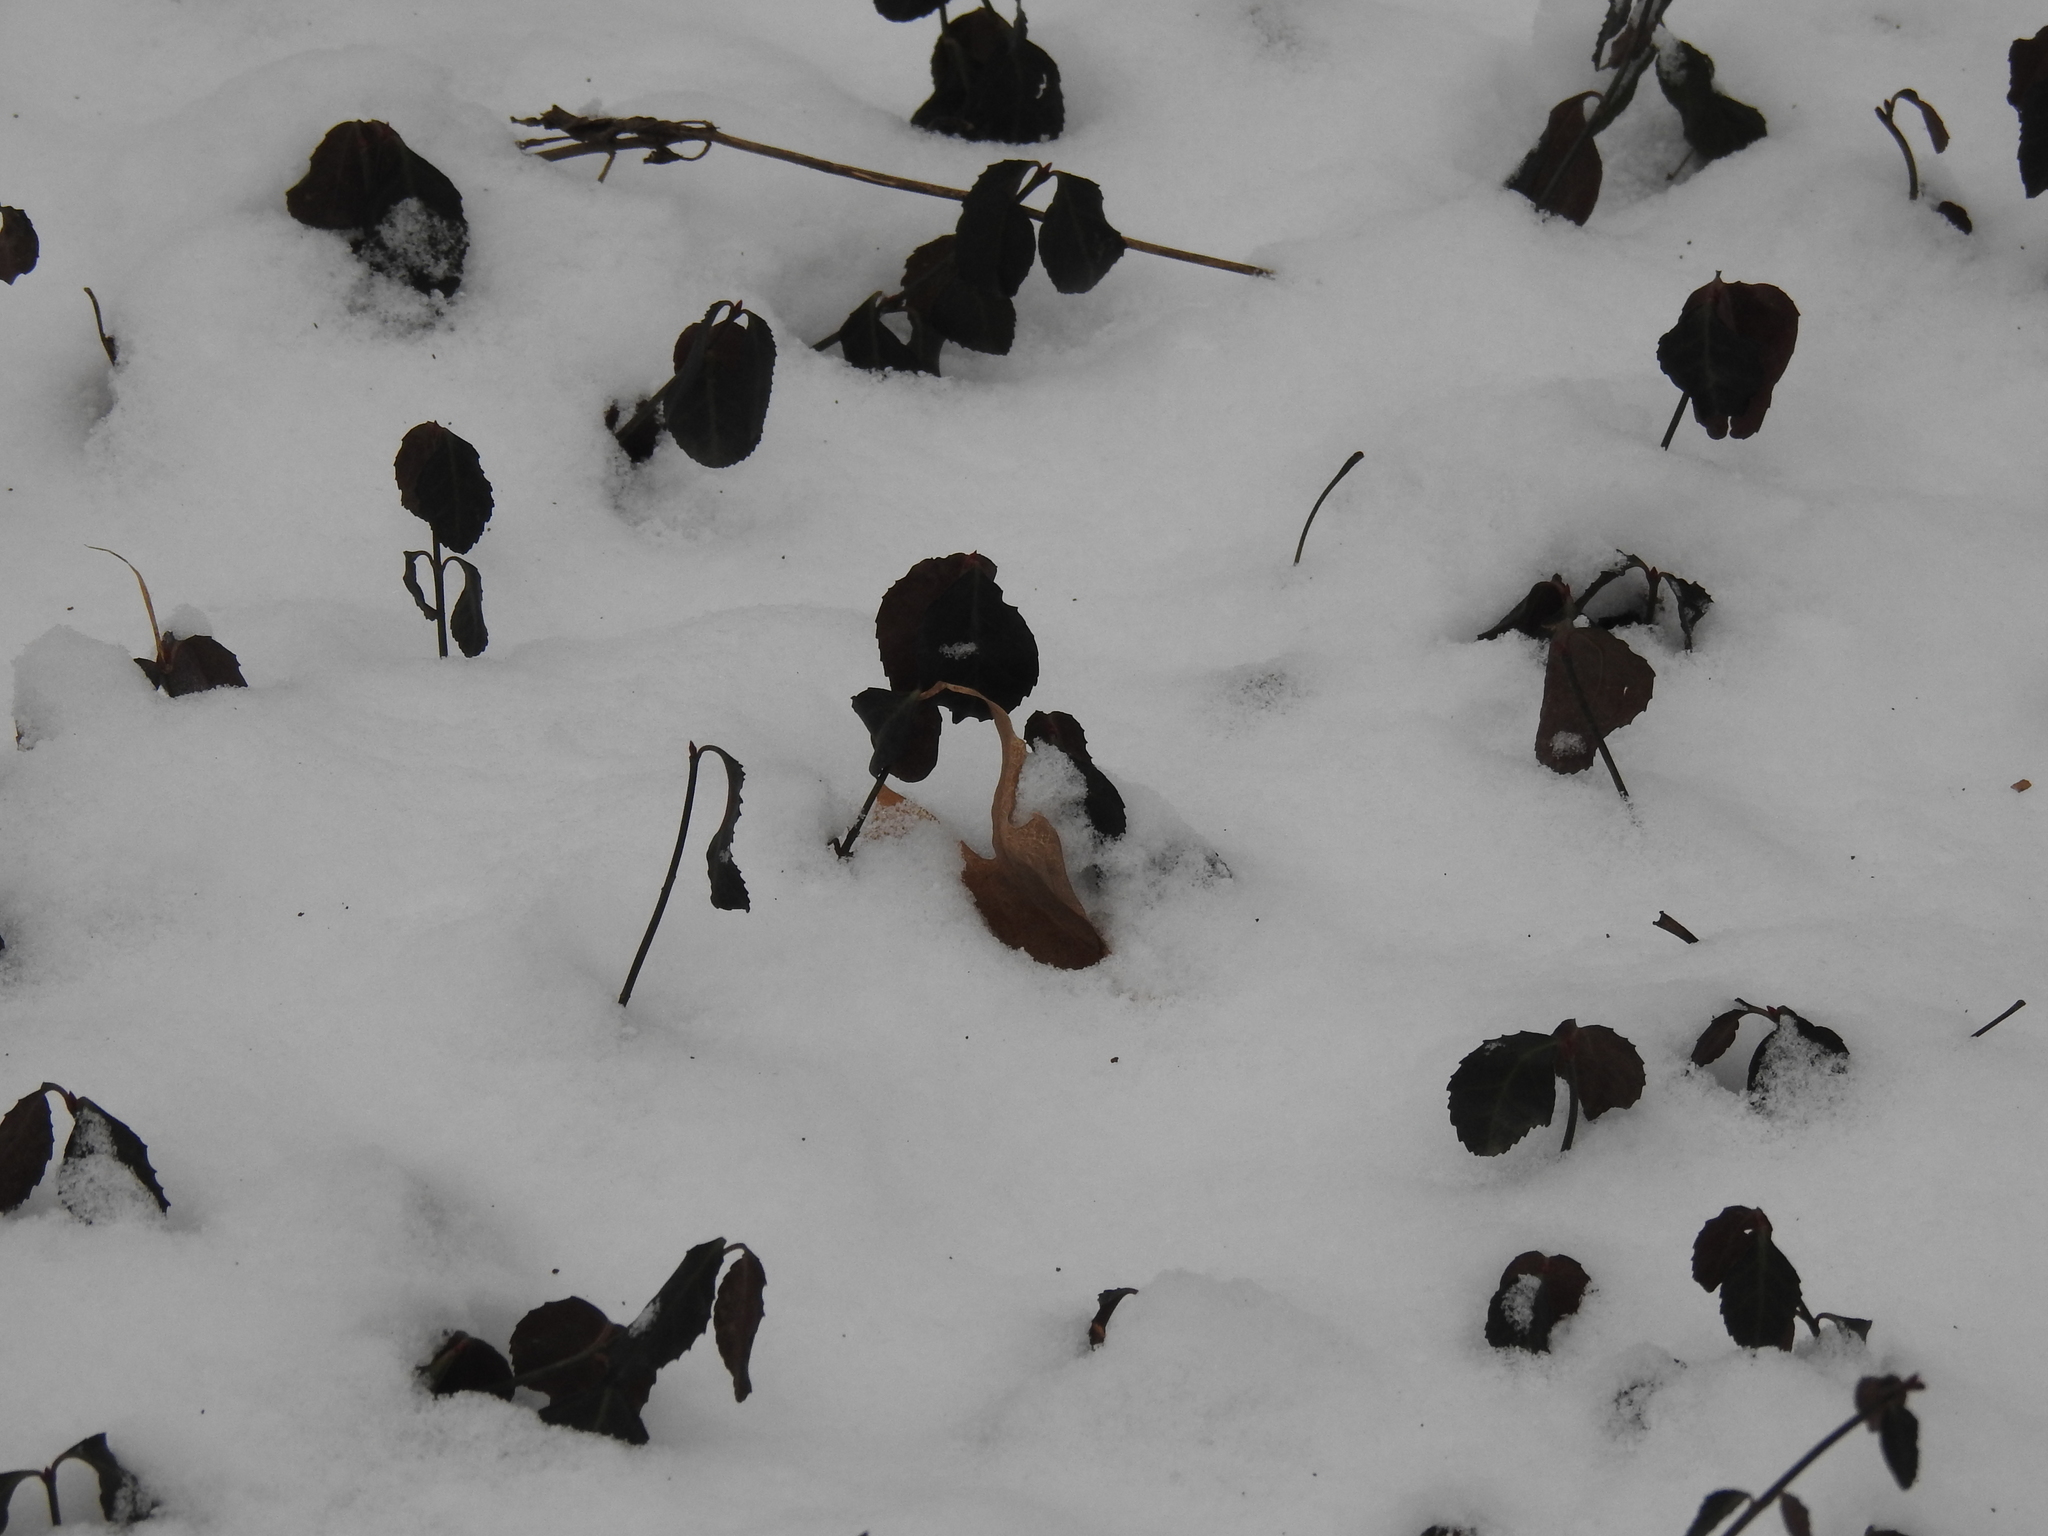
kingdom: Plantae
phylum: Tracheophyta
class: Magnoliopsida
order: Celastrales
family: Celastraceae
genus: Euonymus
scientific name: Euonymus fortunei
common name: Climbing euonymus
